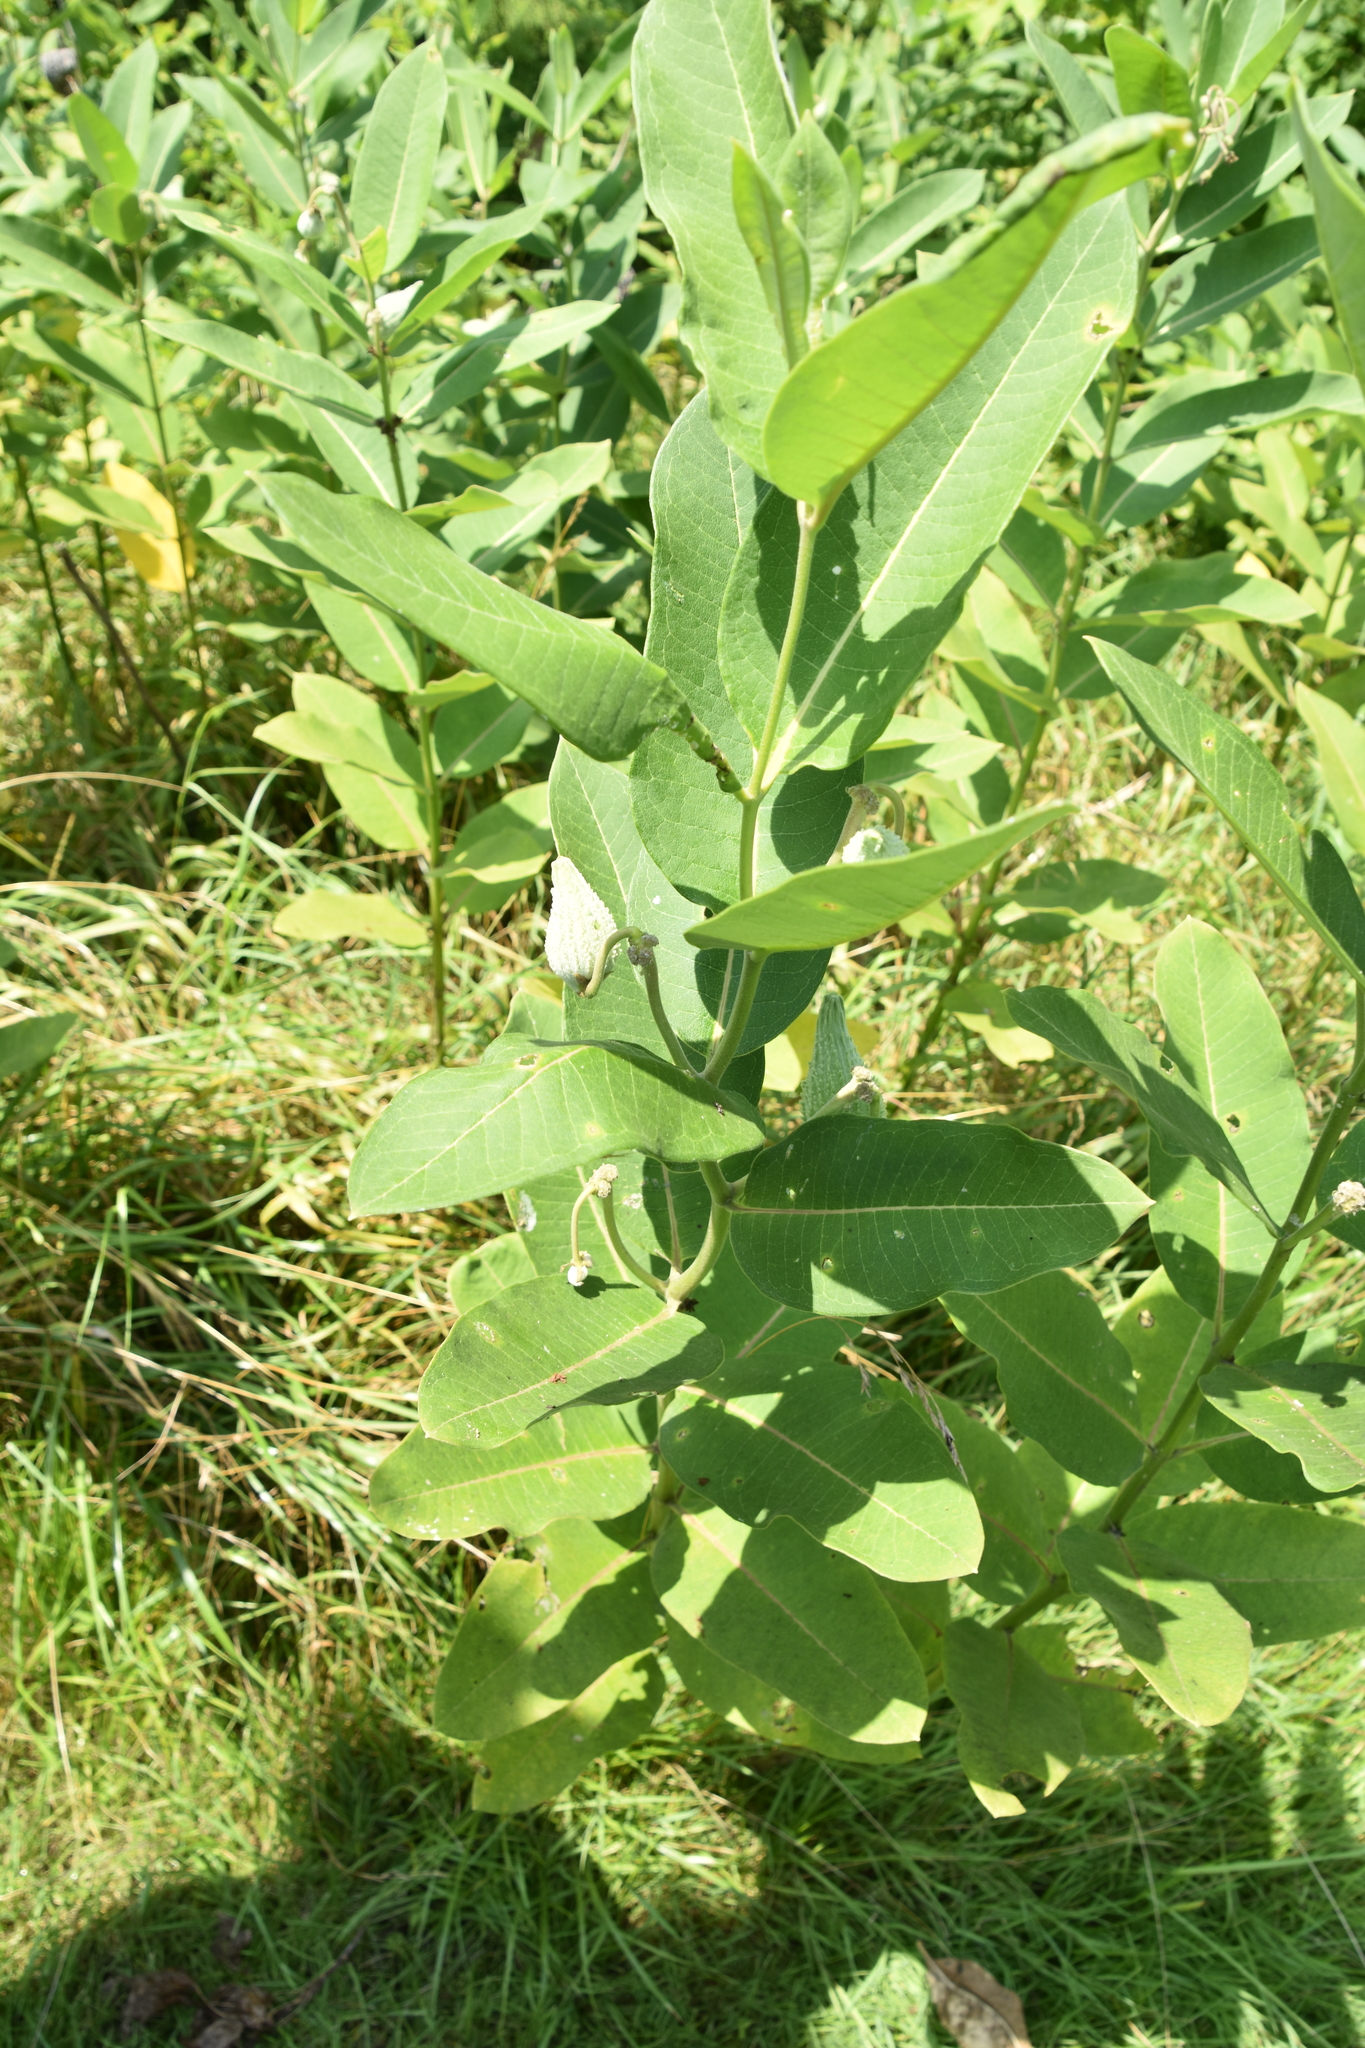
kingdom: Plantae
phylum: Tracheophyta
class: Magnoliopsida
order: Gentianales
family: Apocynaceae
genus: Asclepias
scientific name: Asclepias syriaca
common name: Common milkweed
